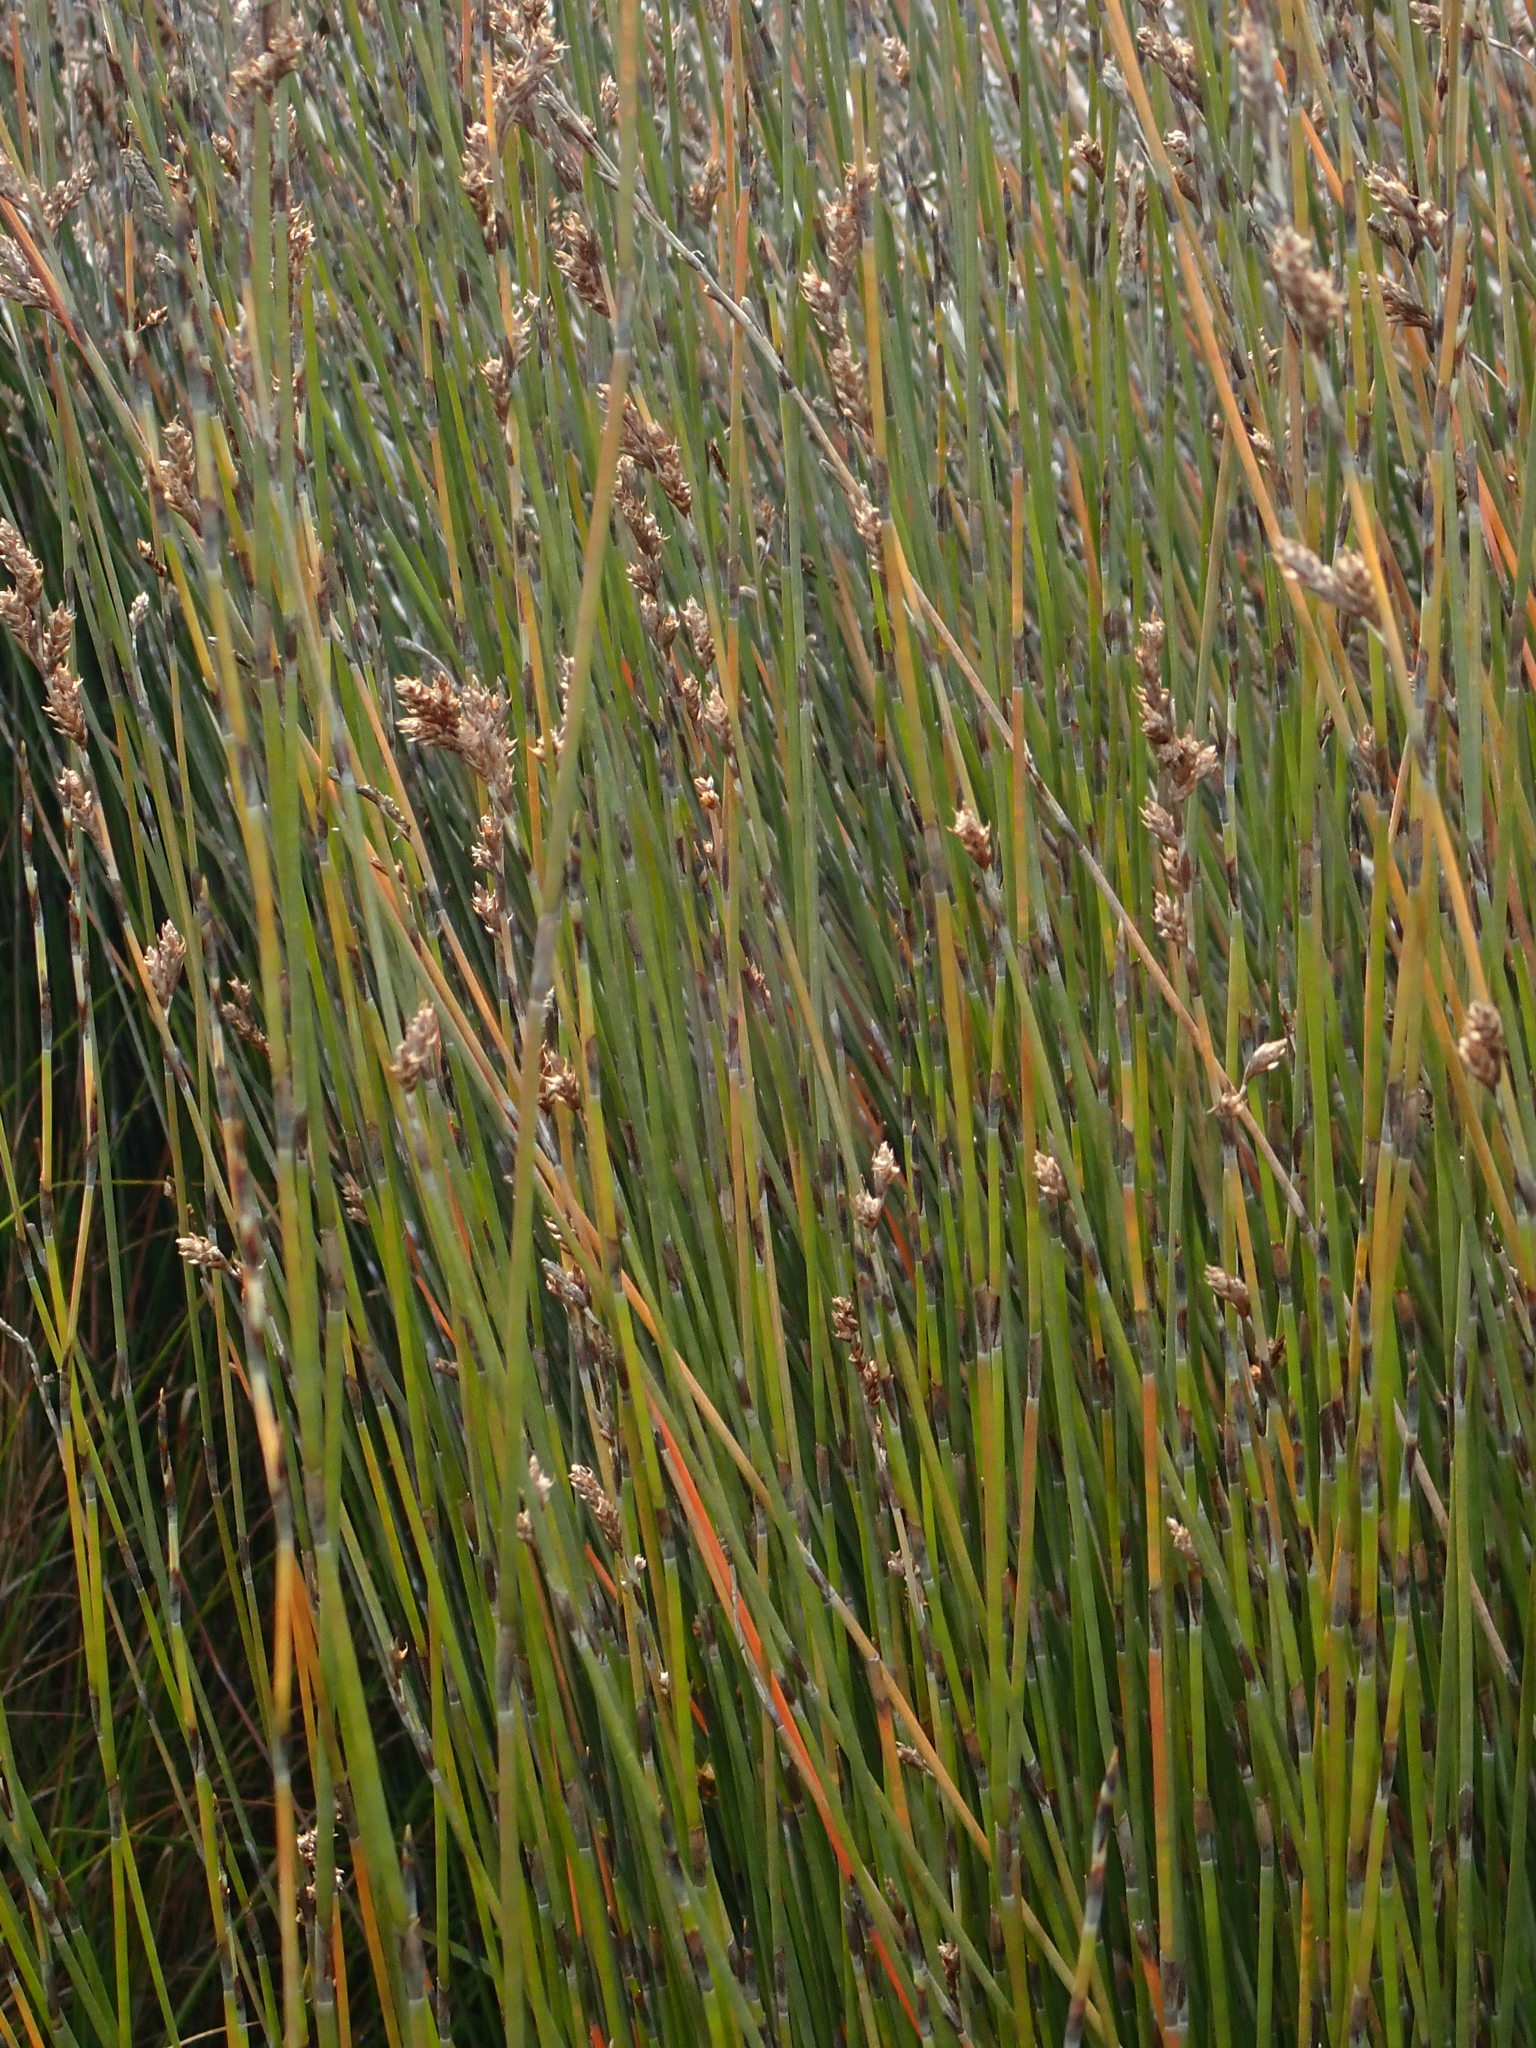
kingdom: Plantae
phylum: Tracheophyta
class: Liliopsida
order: Poales
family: Restionaceae
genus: Apodasmia
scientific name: Apodasmia similis
